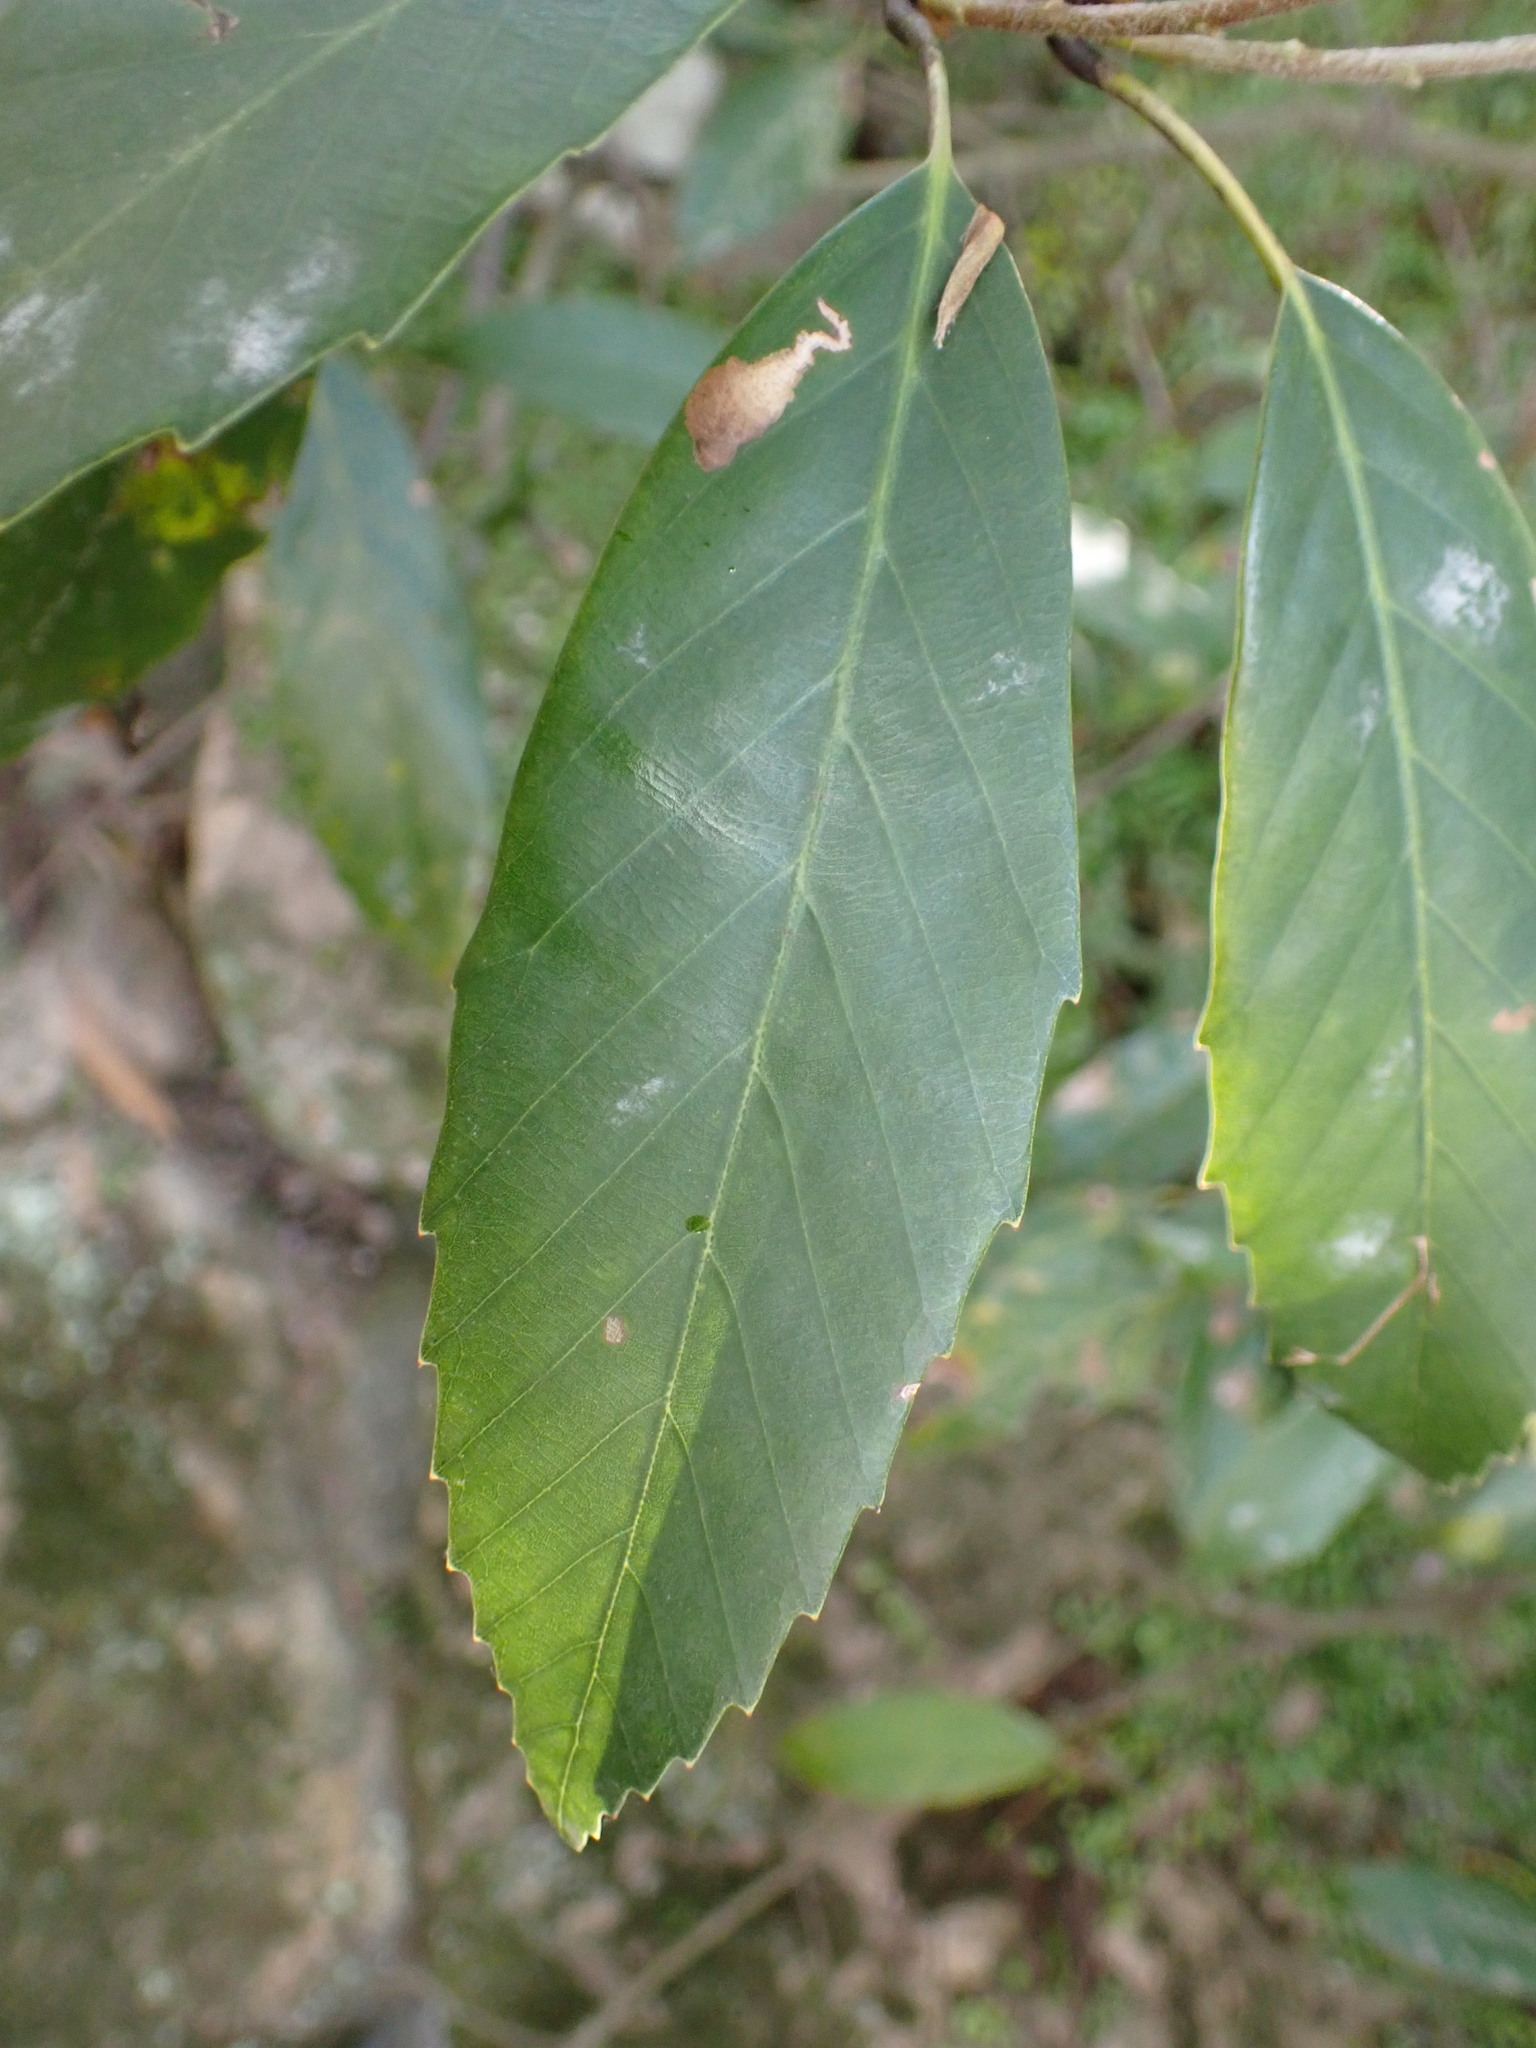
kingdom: Plantae
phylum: Tracheophyta
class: Magnoliopsida
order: Fagales
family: Fagaceae
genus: Quercus
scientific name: Quercus glauca
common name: Ring-cup oak
